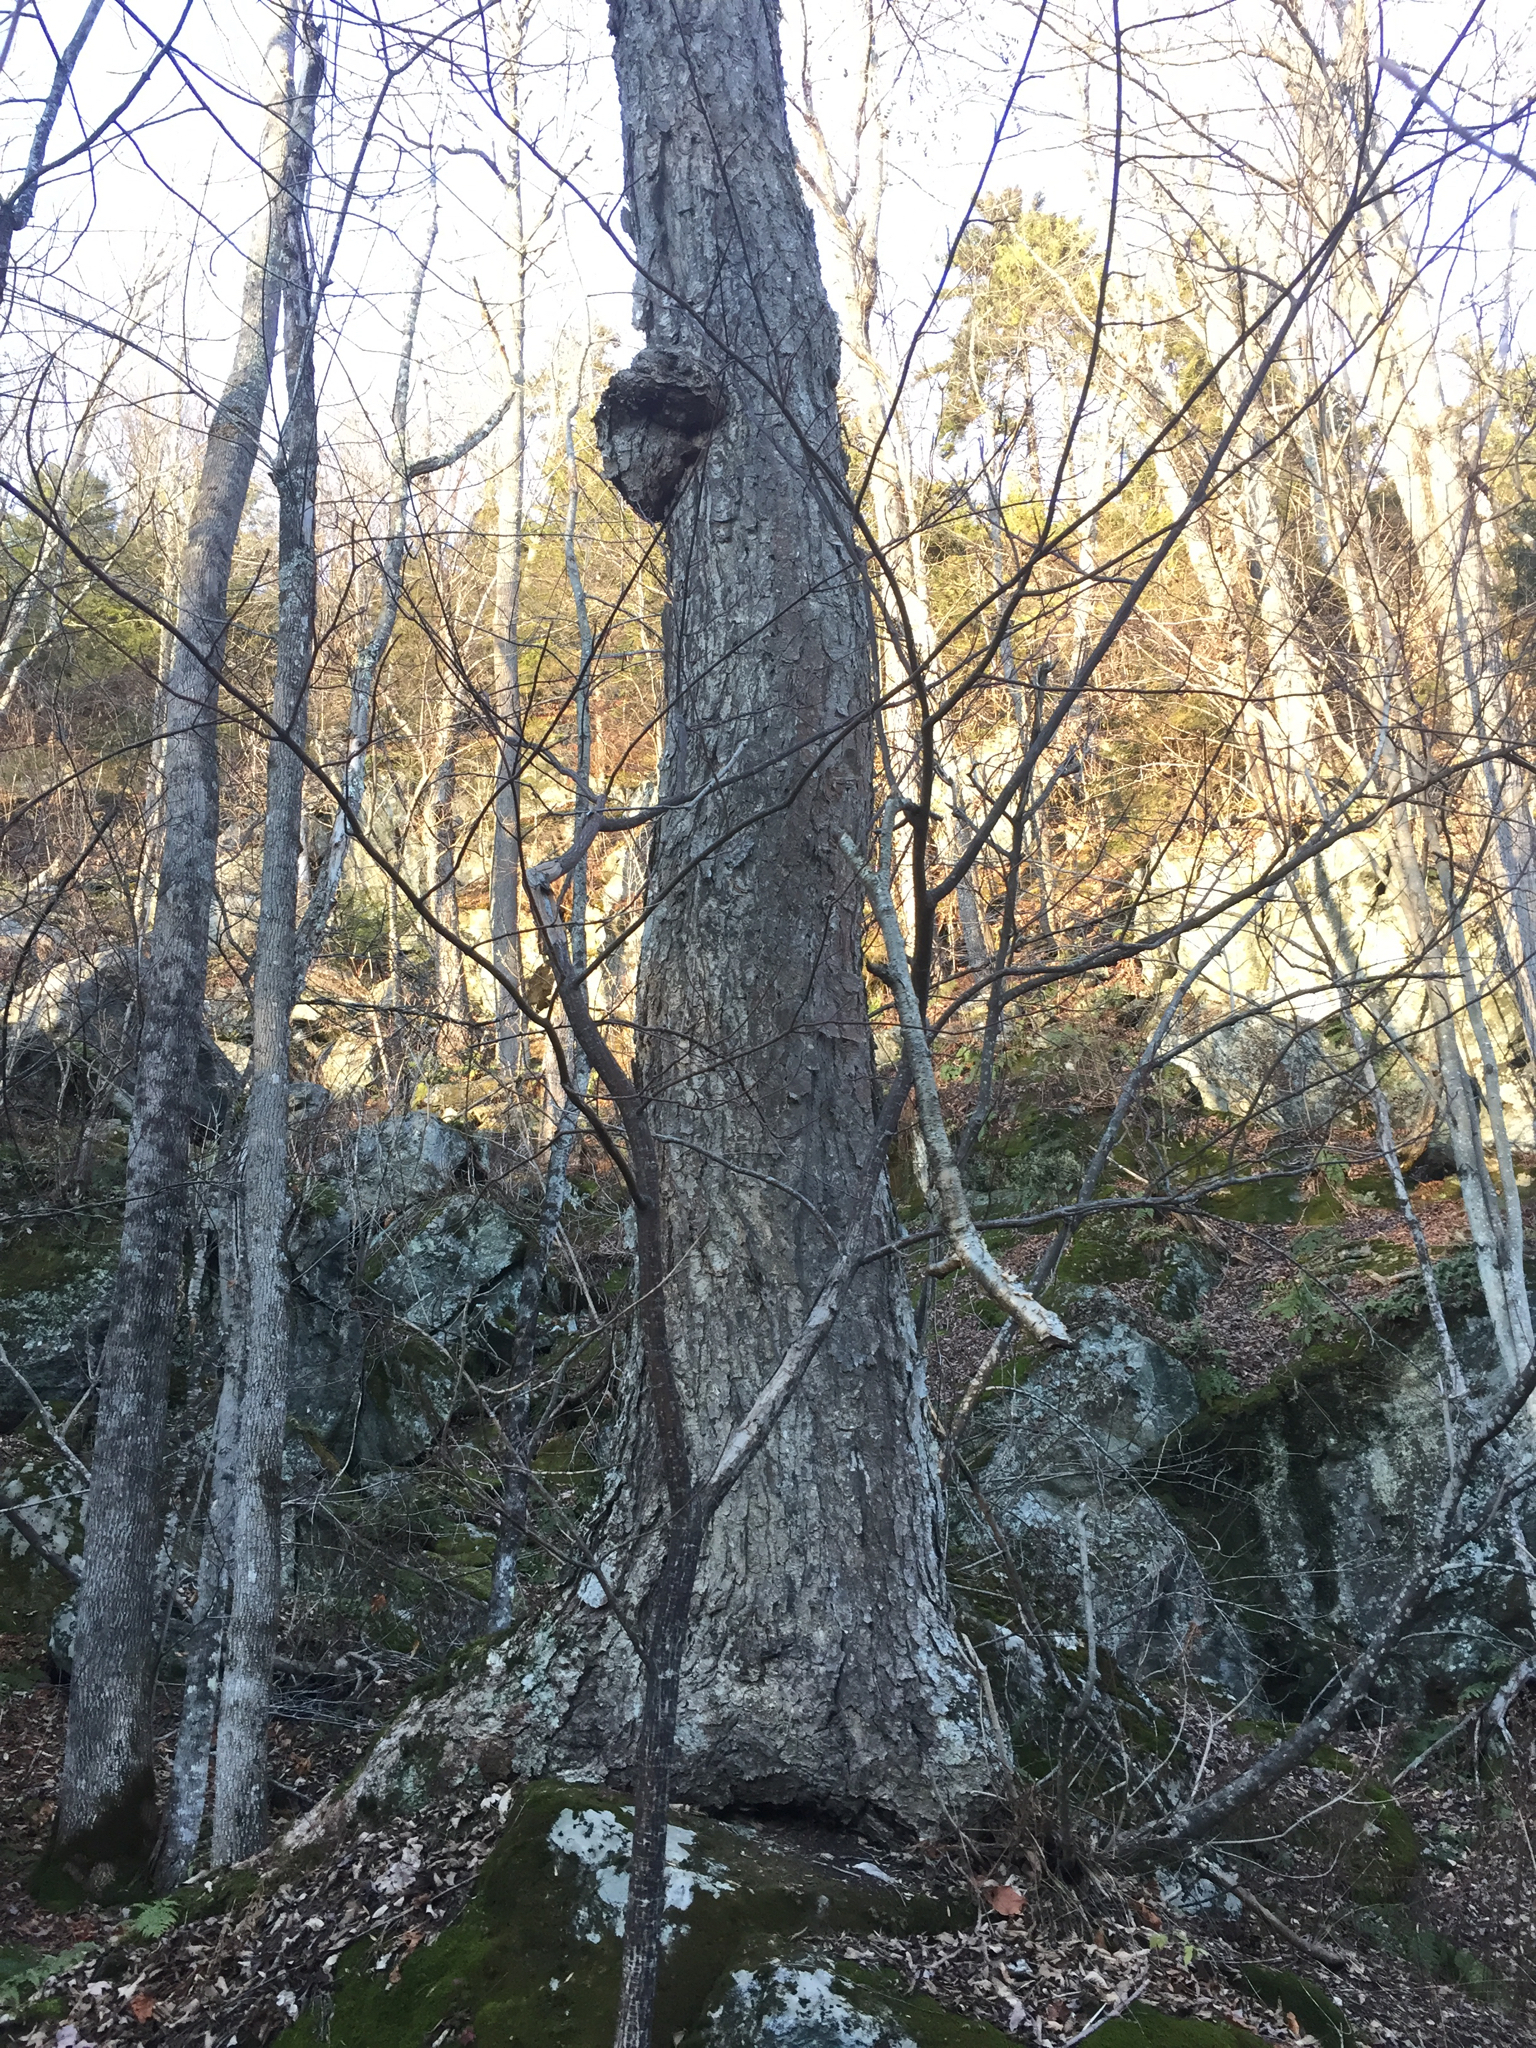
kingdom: Plantae
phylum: Tracheophyta
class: Magnoliopsida
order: Fagales
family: Betulaceae
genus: Betula
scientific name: Betula alleghaniensis
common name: Yellow birch
